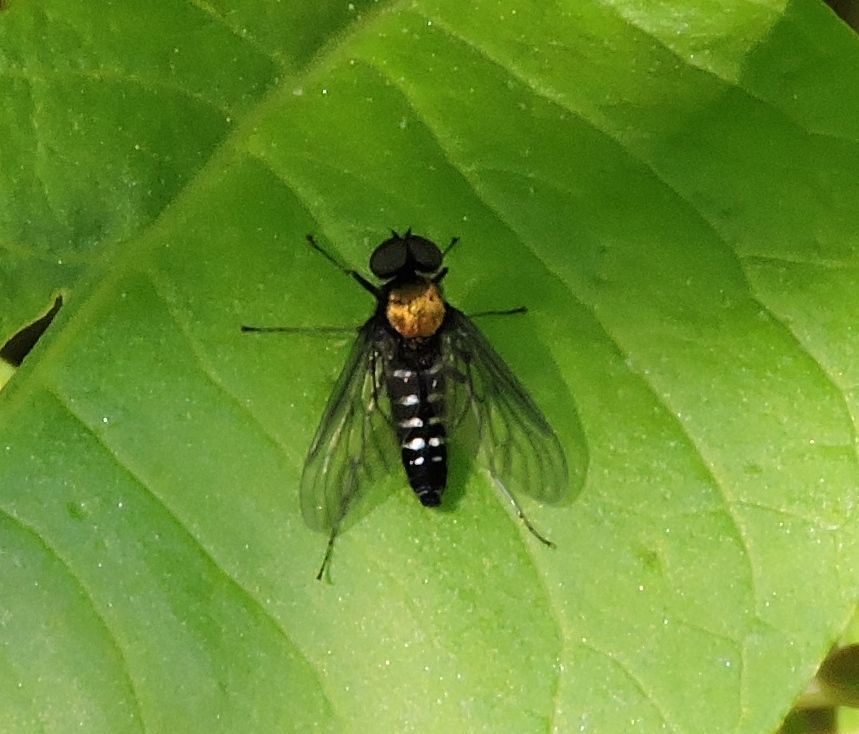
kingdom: Animalia
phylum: Arthropoda
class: Insecta
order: Diptera
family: Rhagionidae
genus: Chrysopilus
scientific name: Chrysopilus thoracicus
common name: Golden-backed snipe fly
